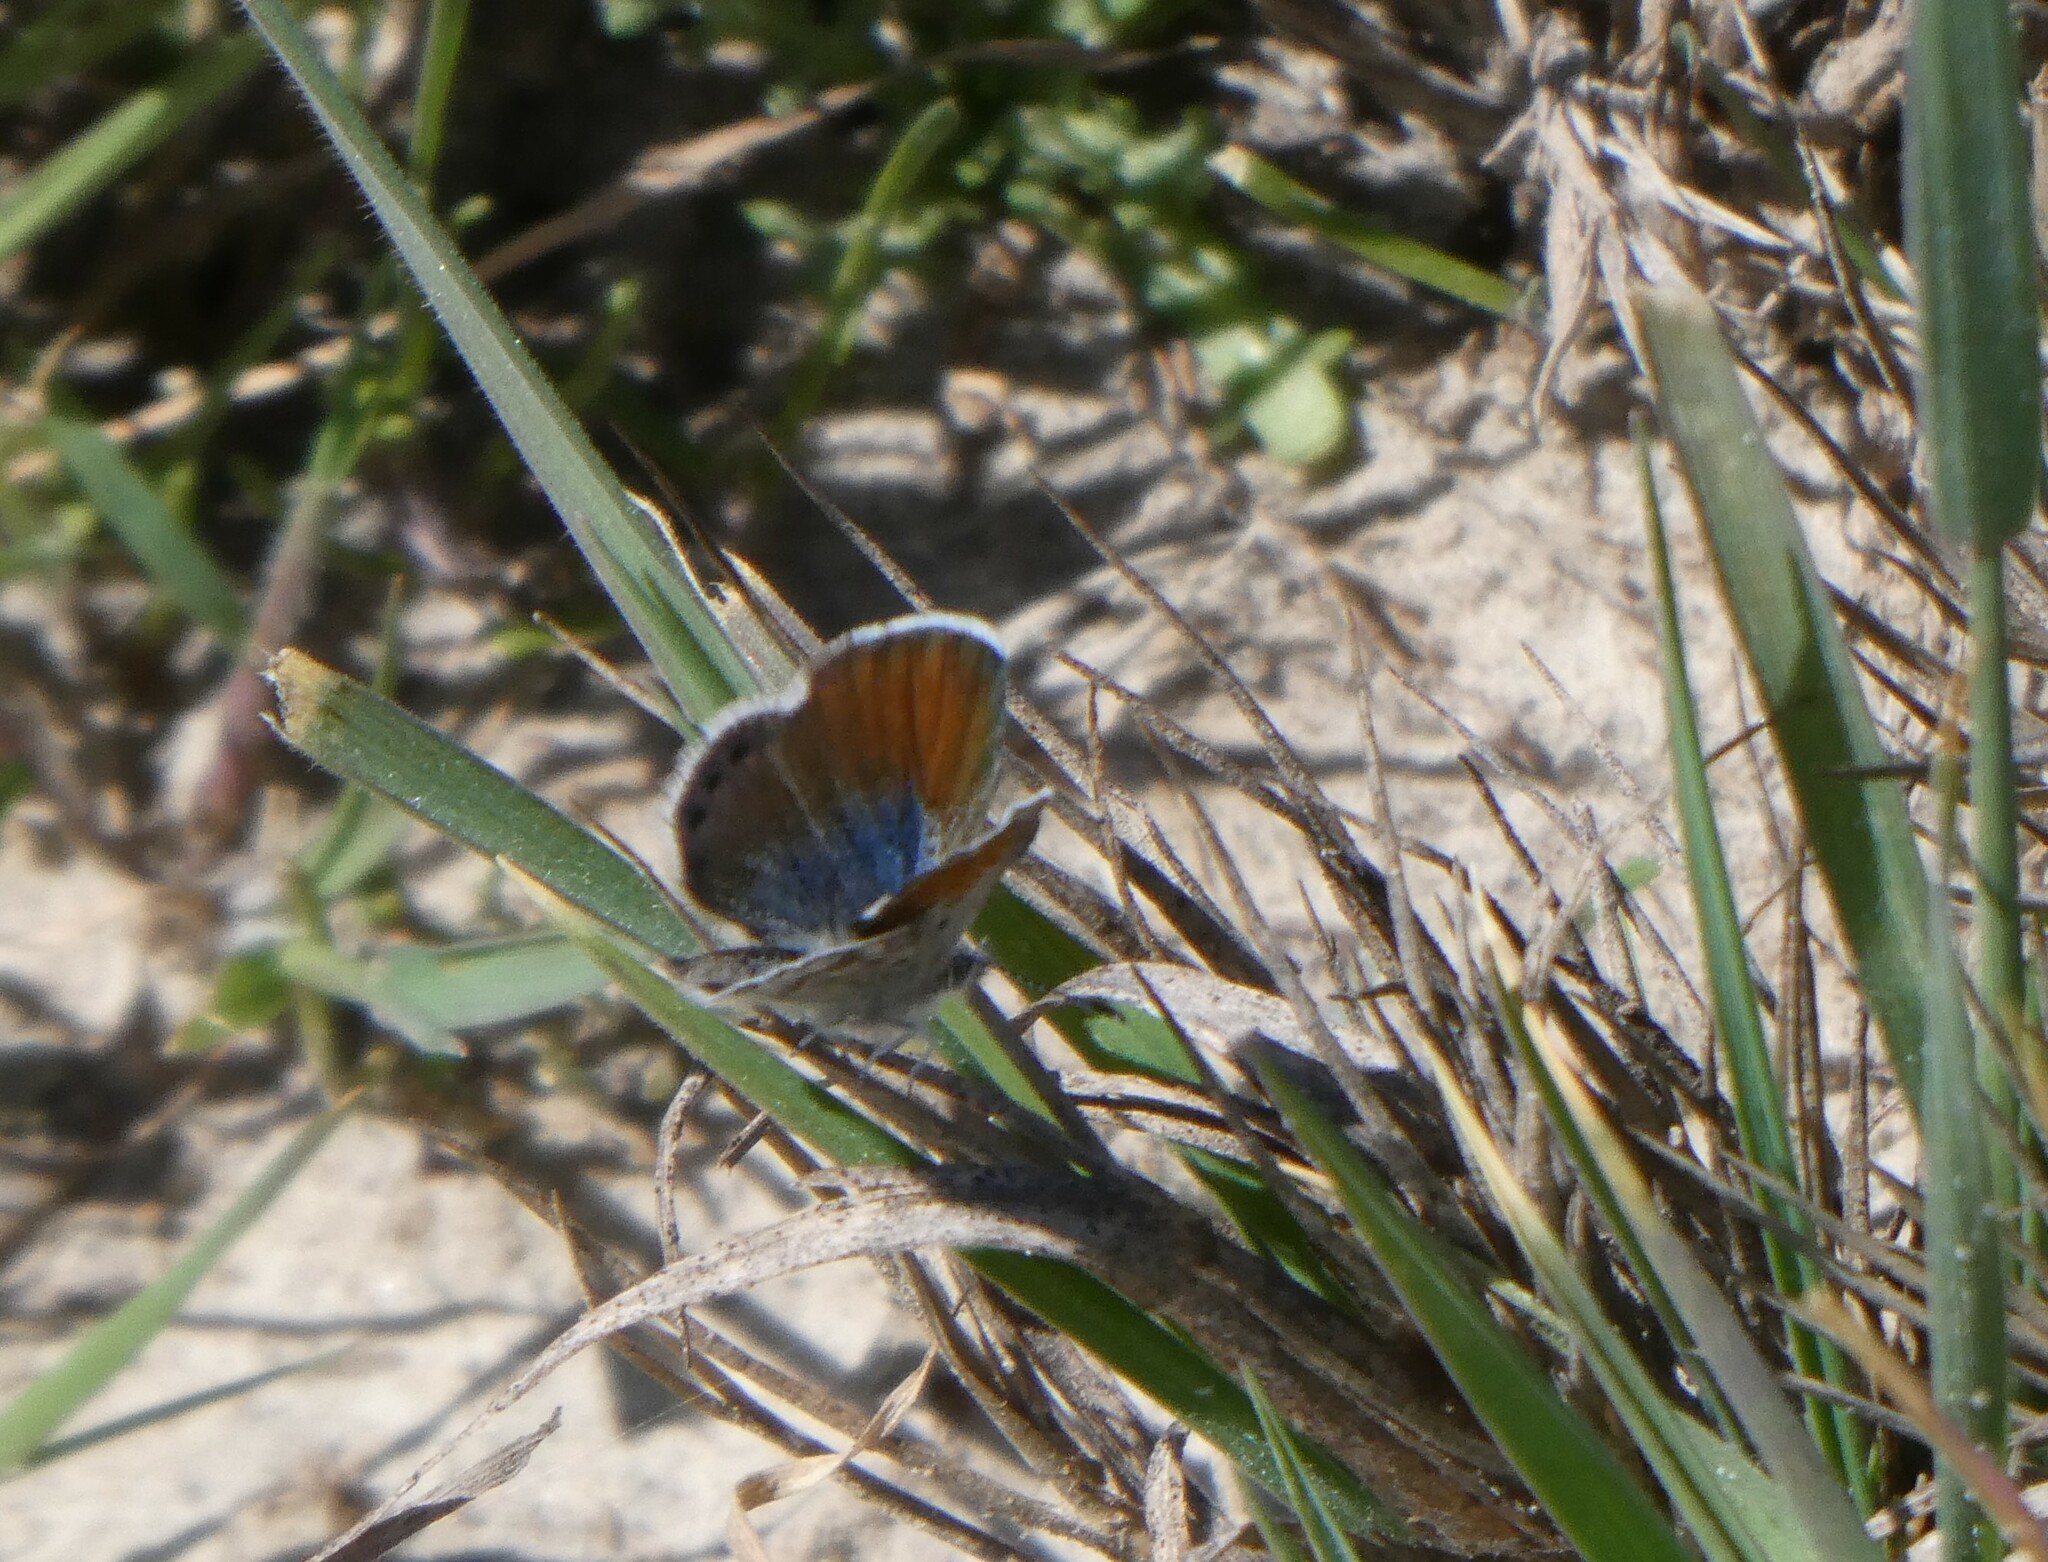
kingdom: Animalia
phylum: Arthropoda
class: Insecta
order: Lepidoptera
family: Lycaenidae
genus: Brephidium
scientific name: Brephidium exilis
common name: Pygmy blue
